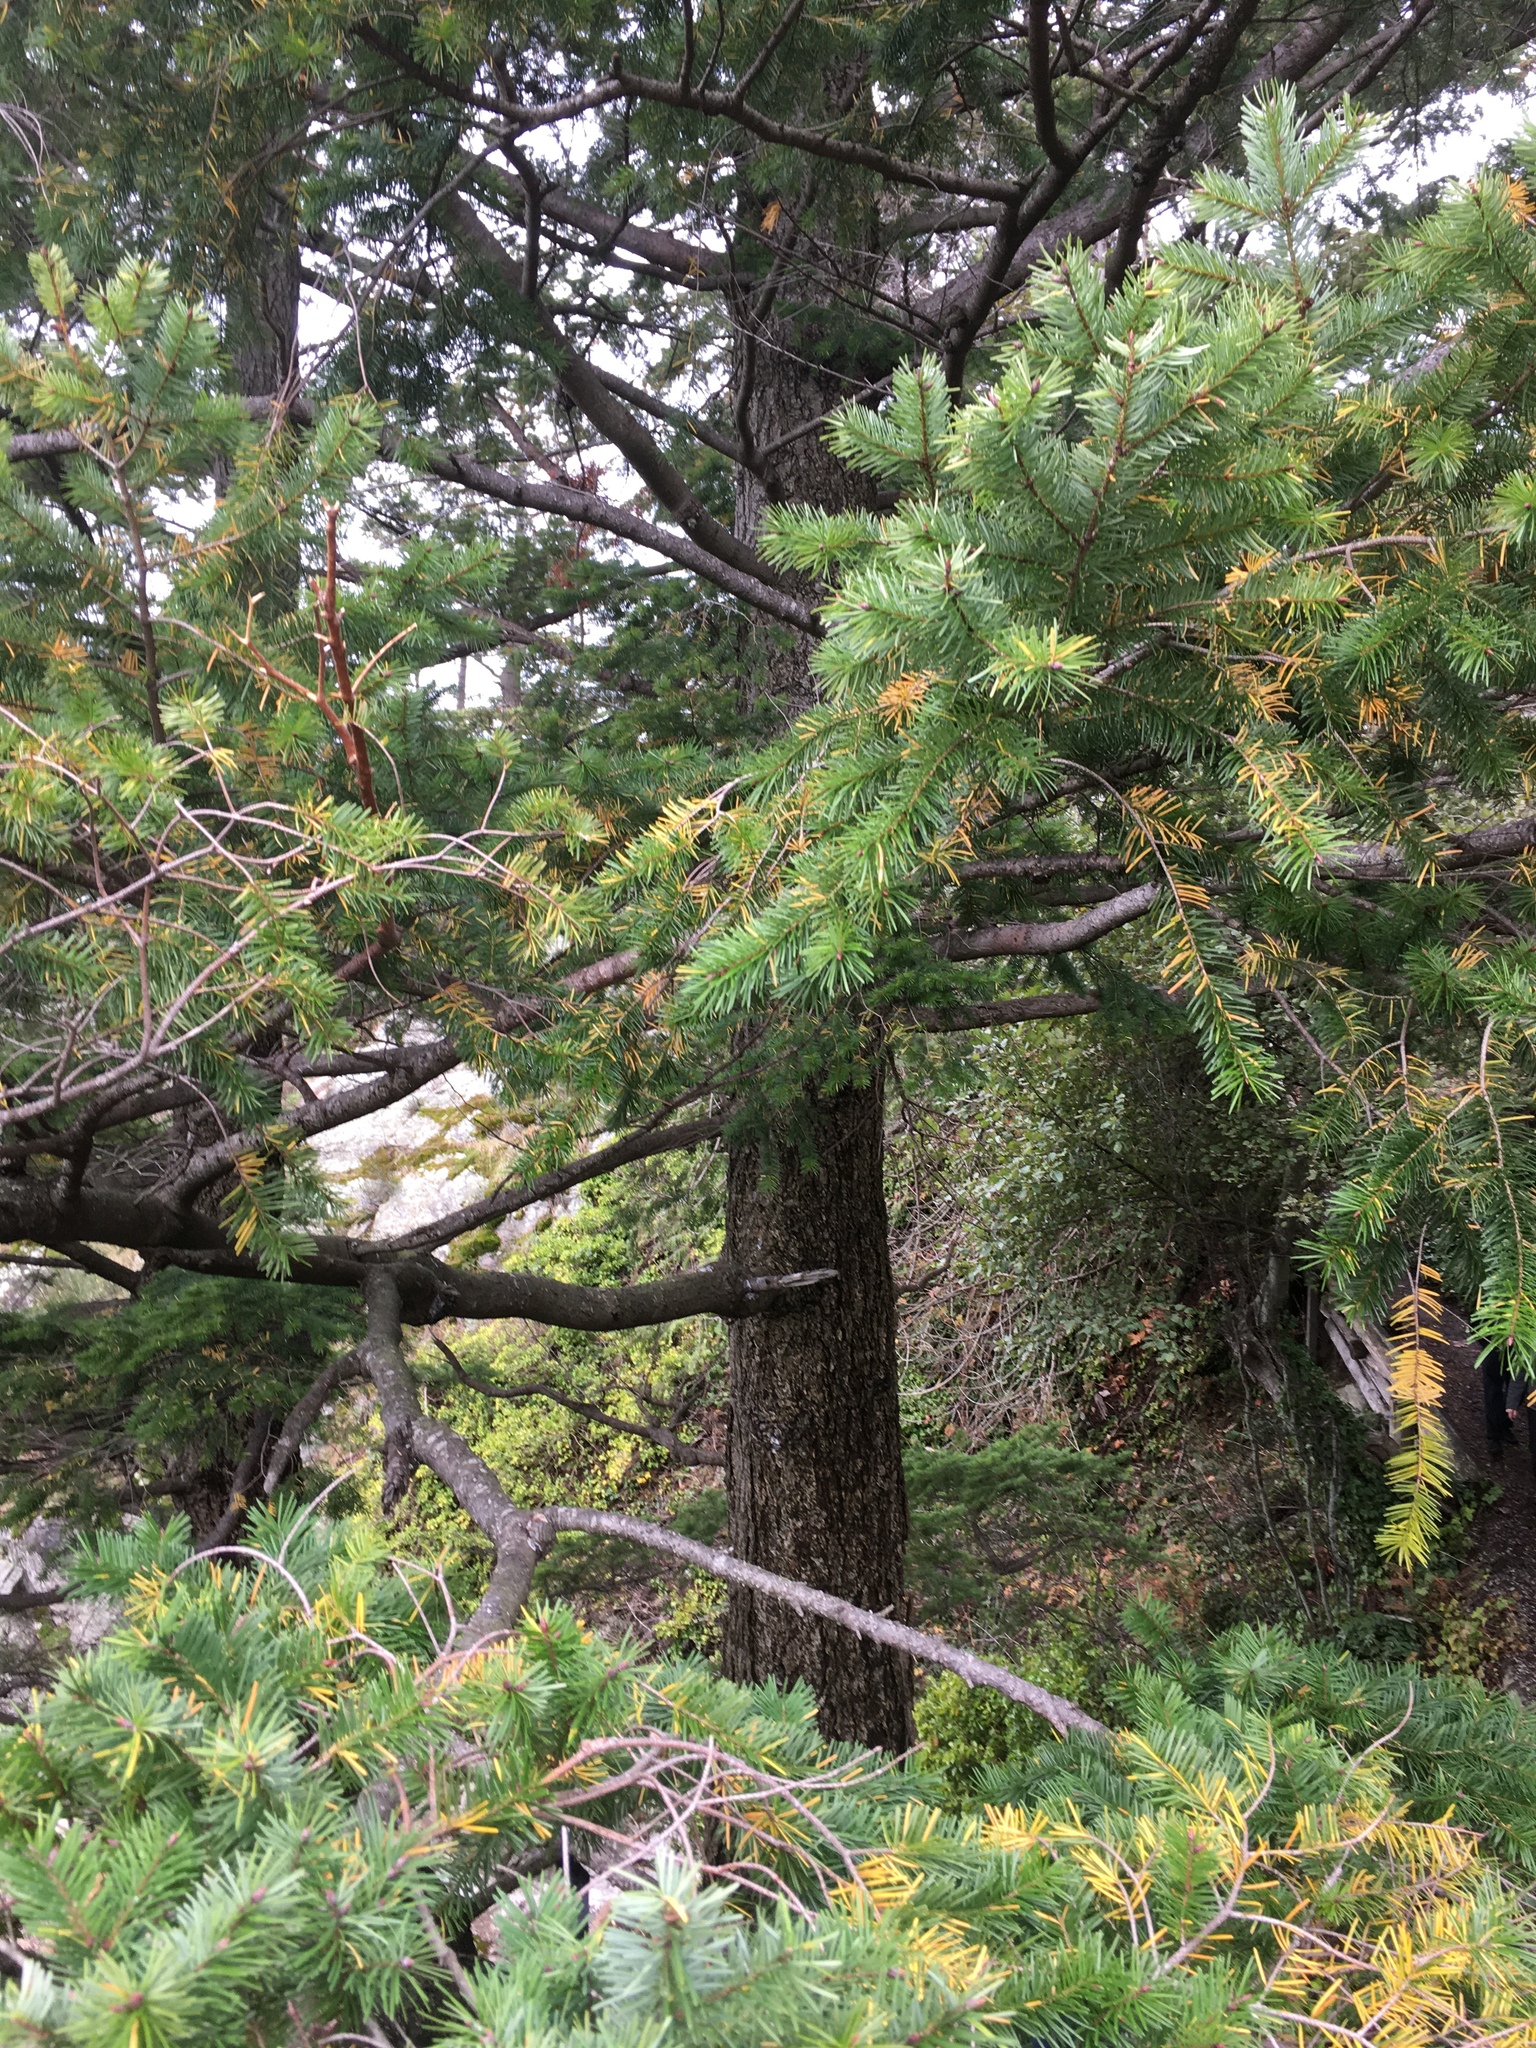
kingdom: Plantae
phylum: Tracheophyta
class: Pinopsida
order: Pinales
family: Pinaceae
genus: Pseudotsuga
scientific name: Pseudotsuga menziesii
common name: Douglas fir
